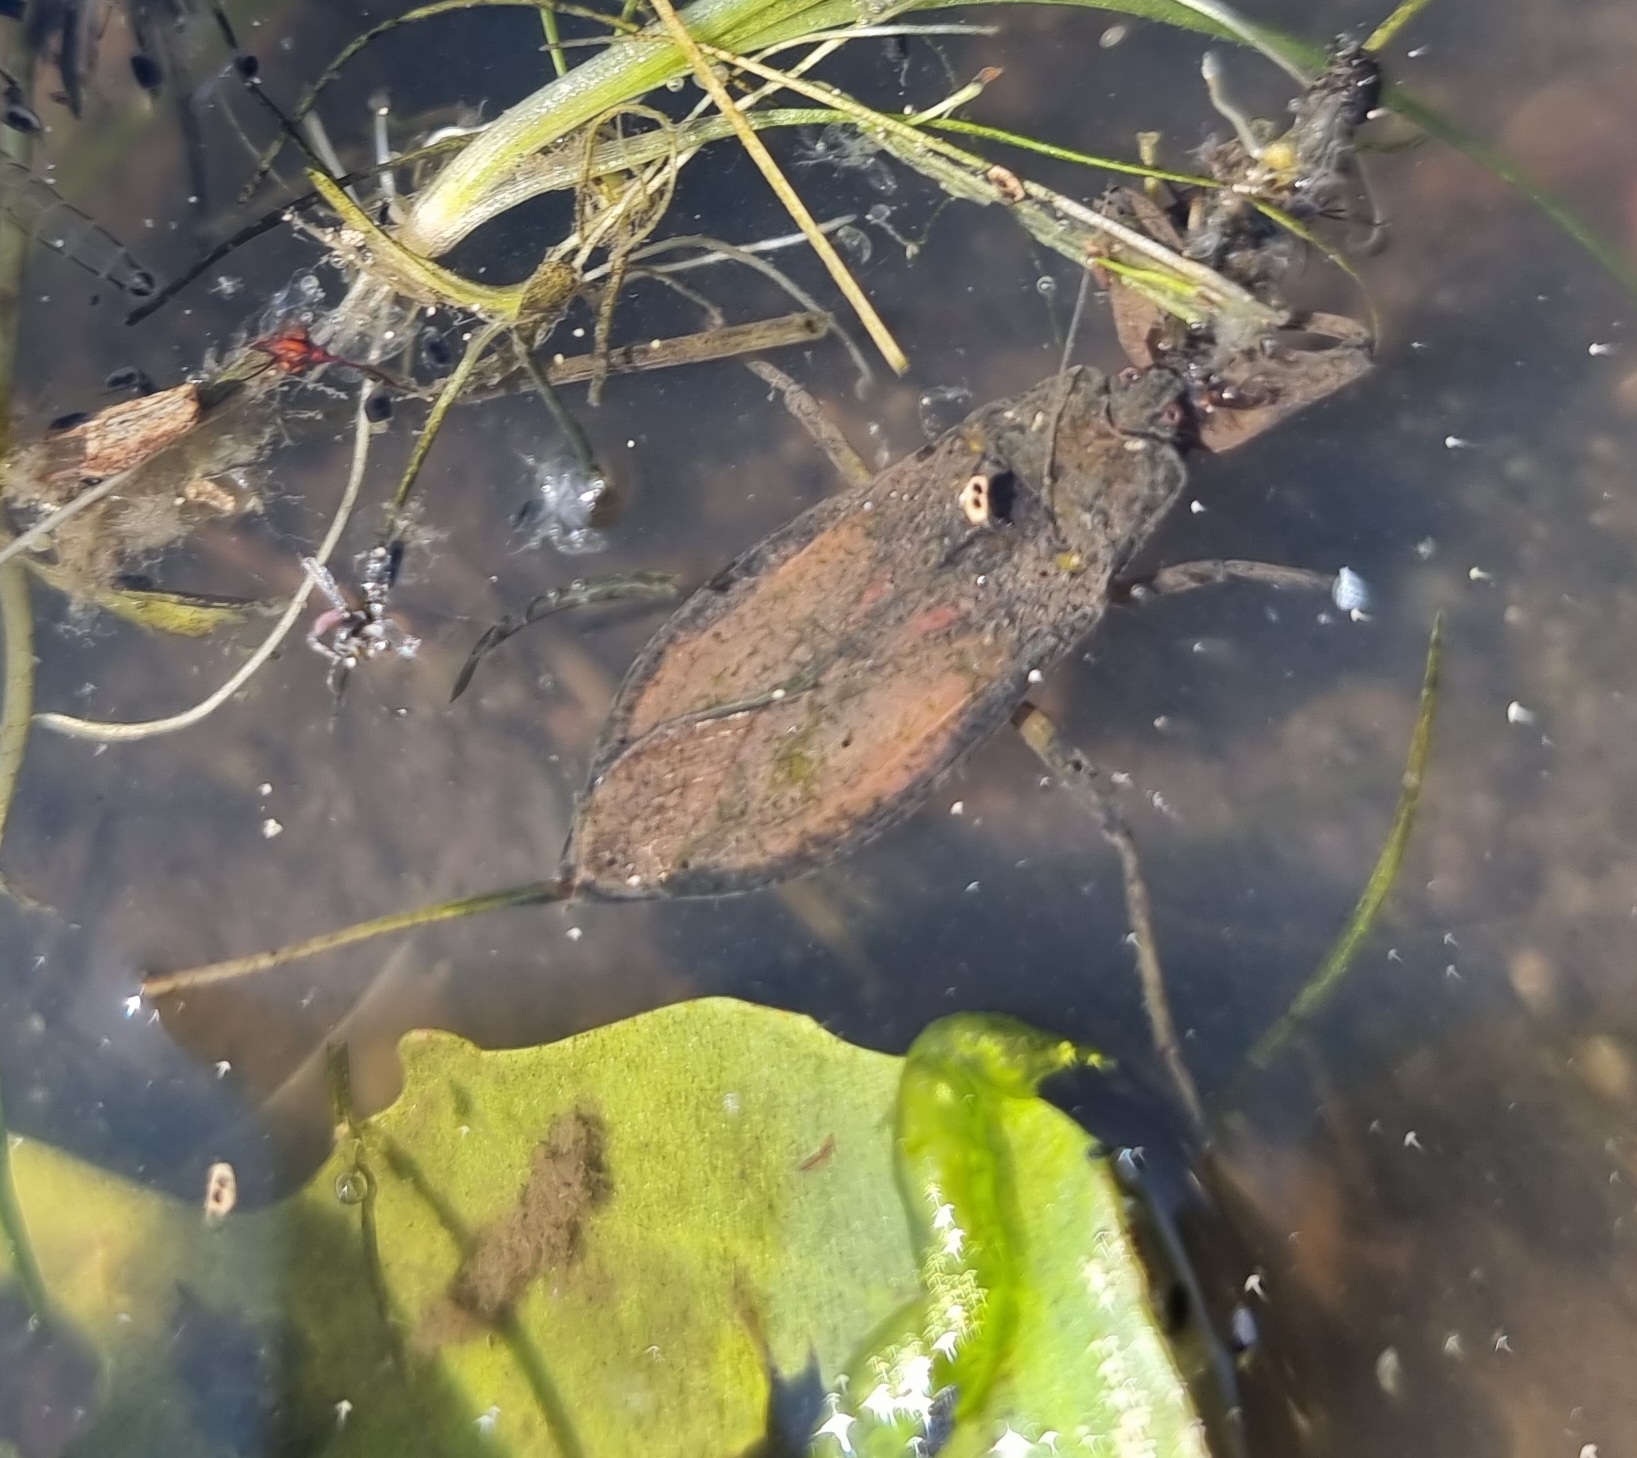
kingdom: Animalia
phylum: Arthropoda
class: Insecta
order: Hemiptera
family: Nepidae
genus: Nepa
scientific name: Nepa cinerea
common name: Water scorpion
